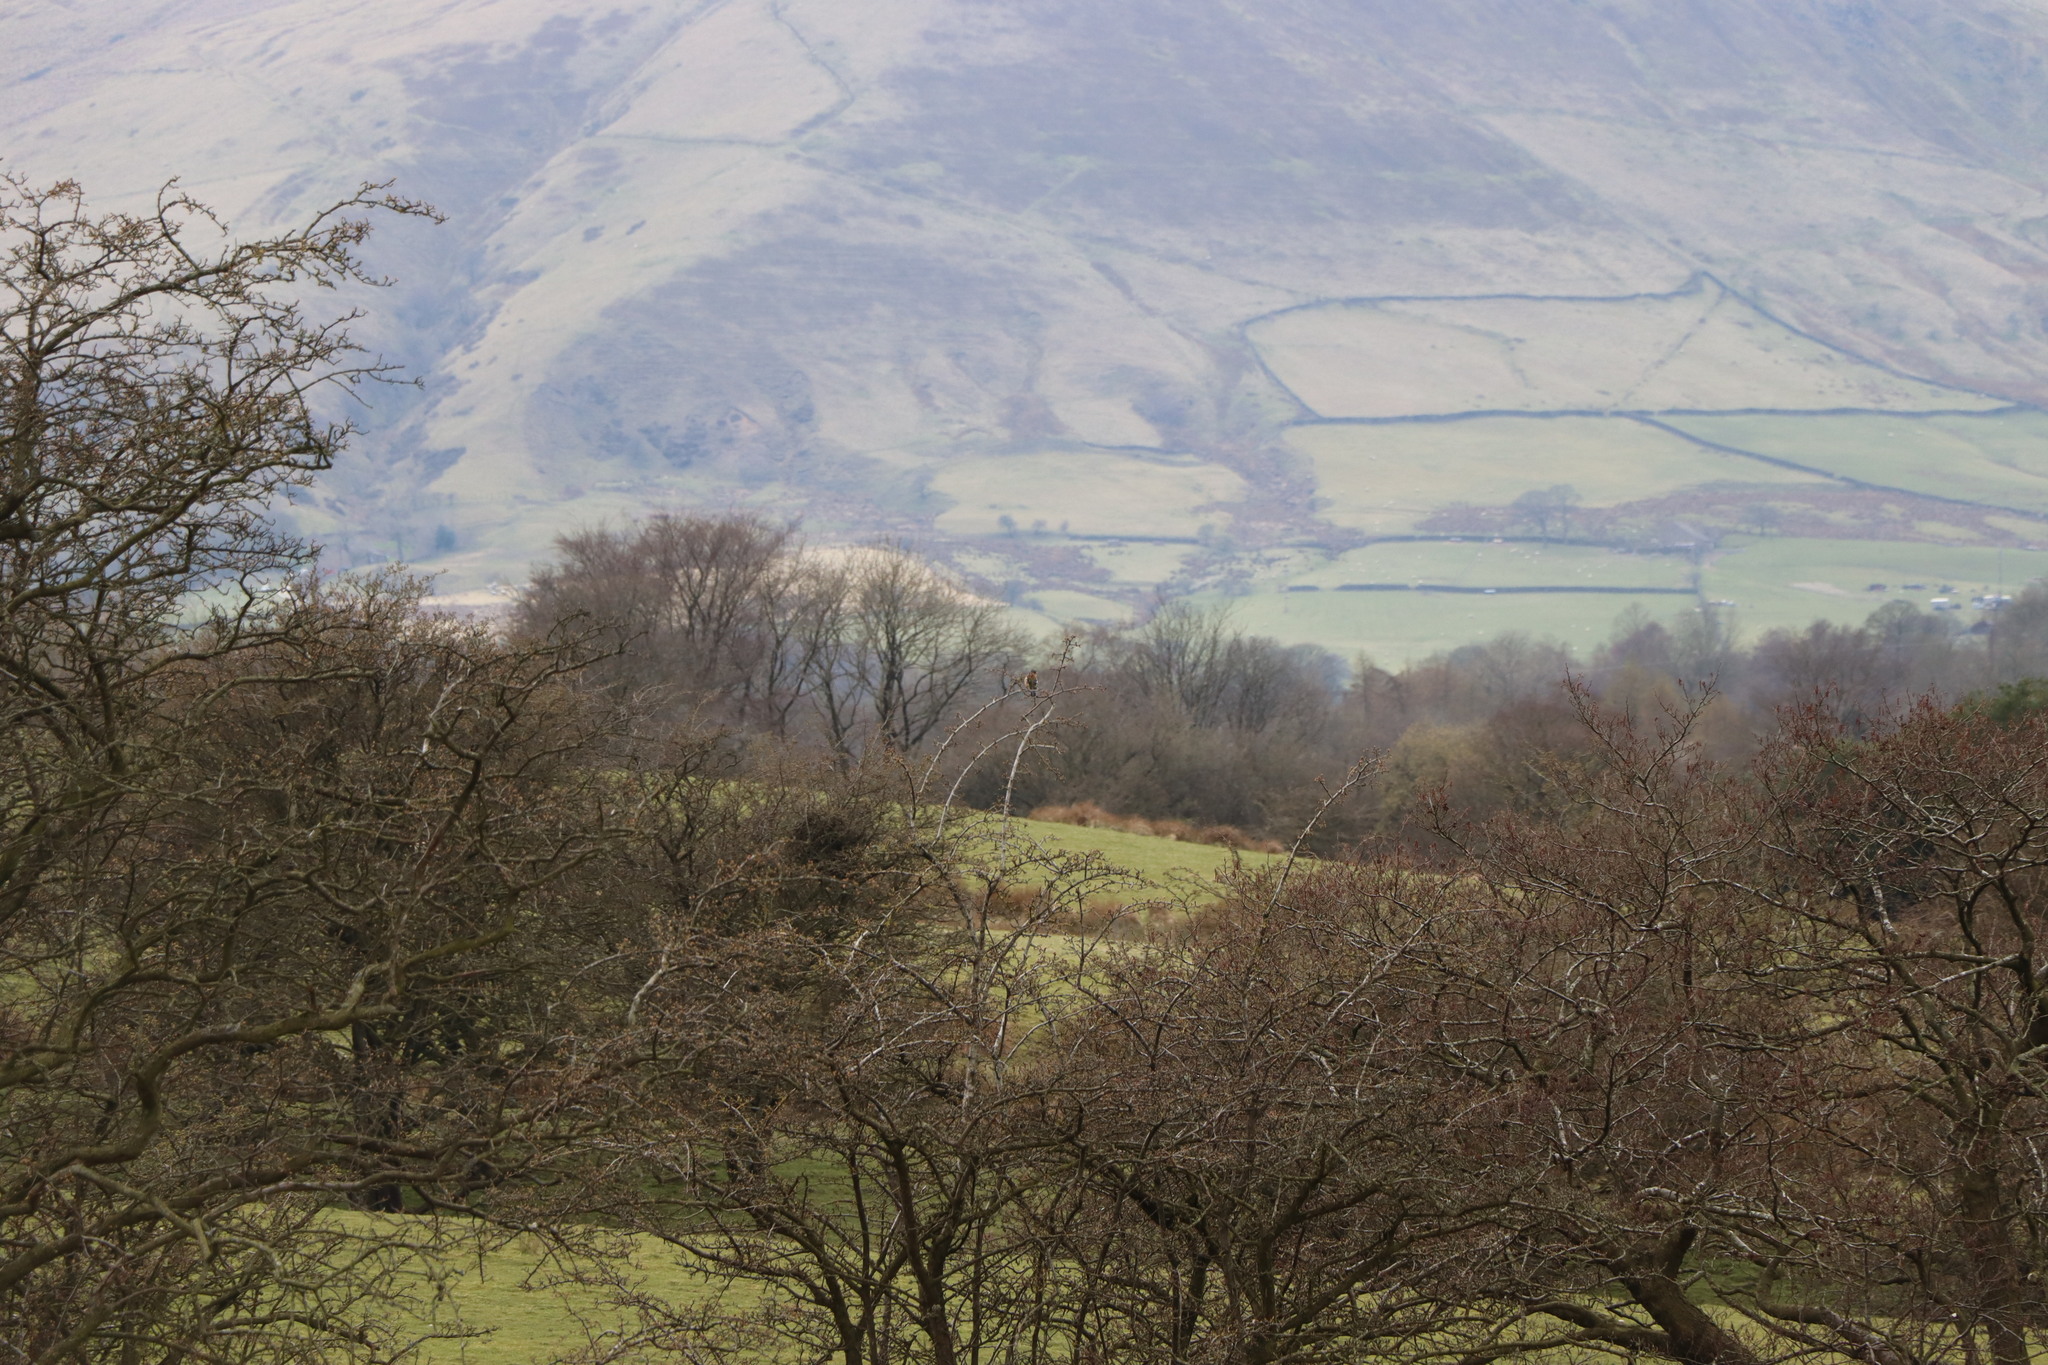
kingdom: Animalia
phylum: Chordata
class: Aves
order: Passeriformes
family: Fringillidae
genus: Fringilla
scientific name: Fringilla coelebs
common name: Common chaffinch
